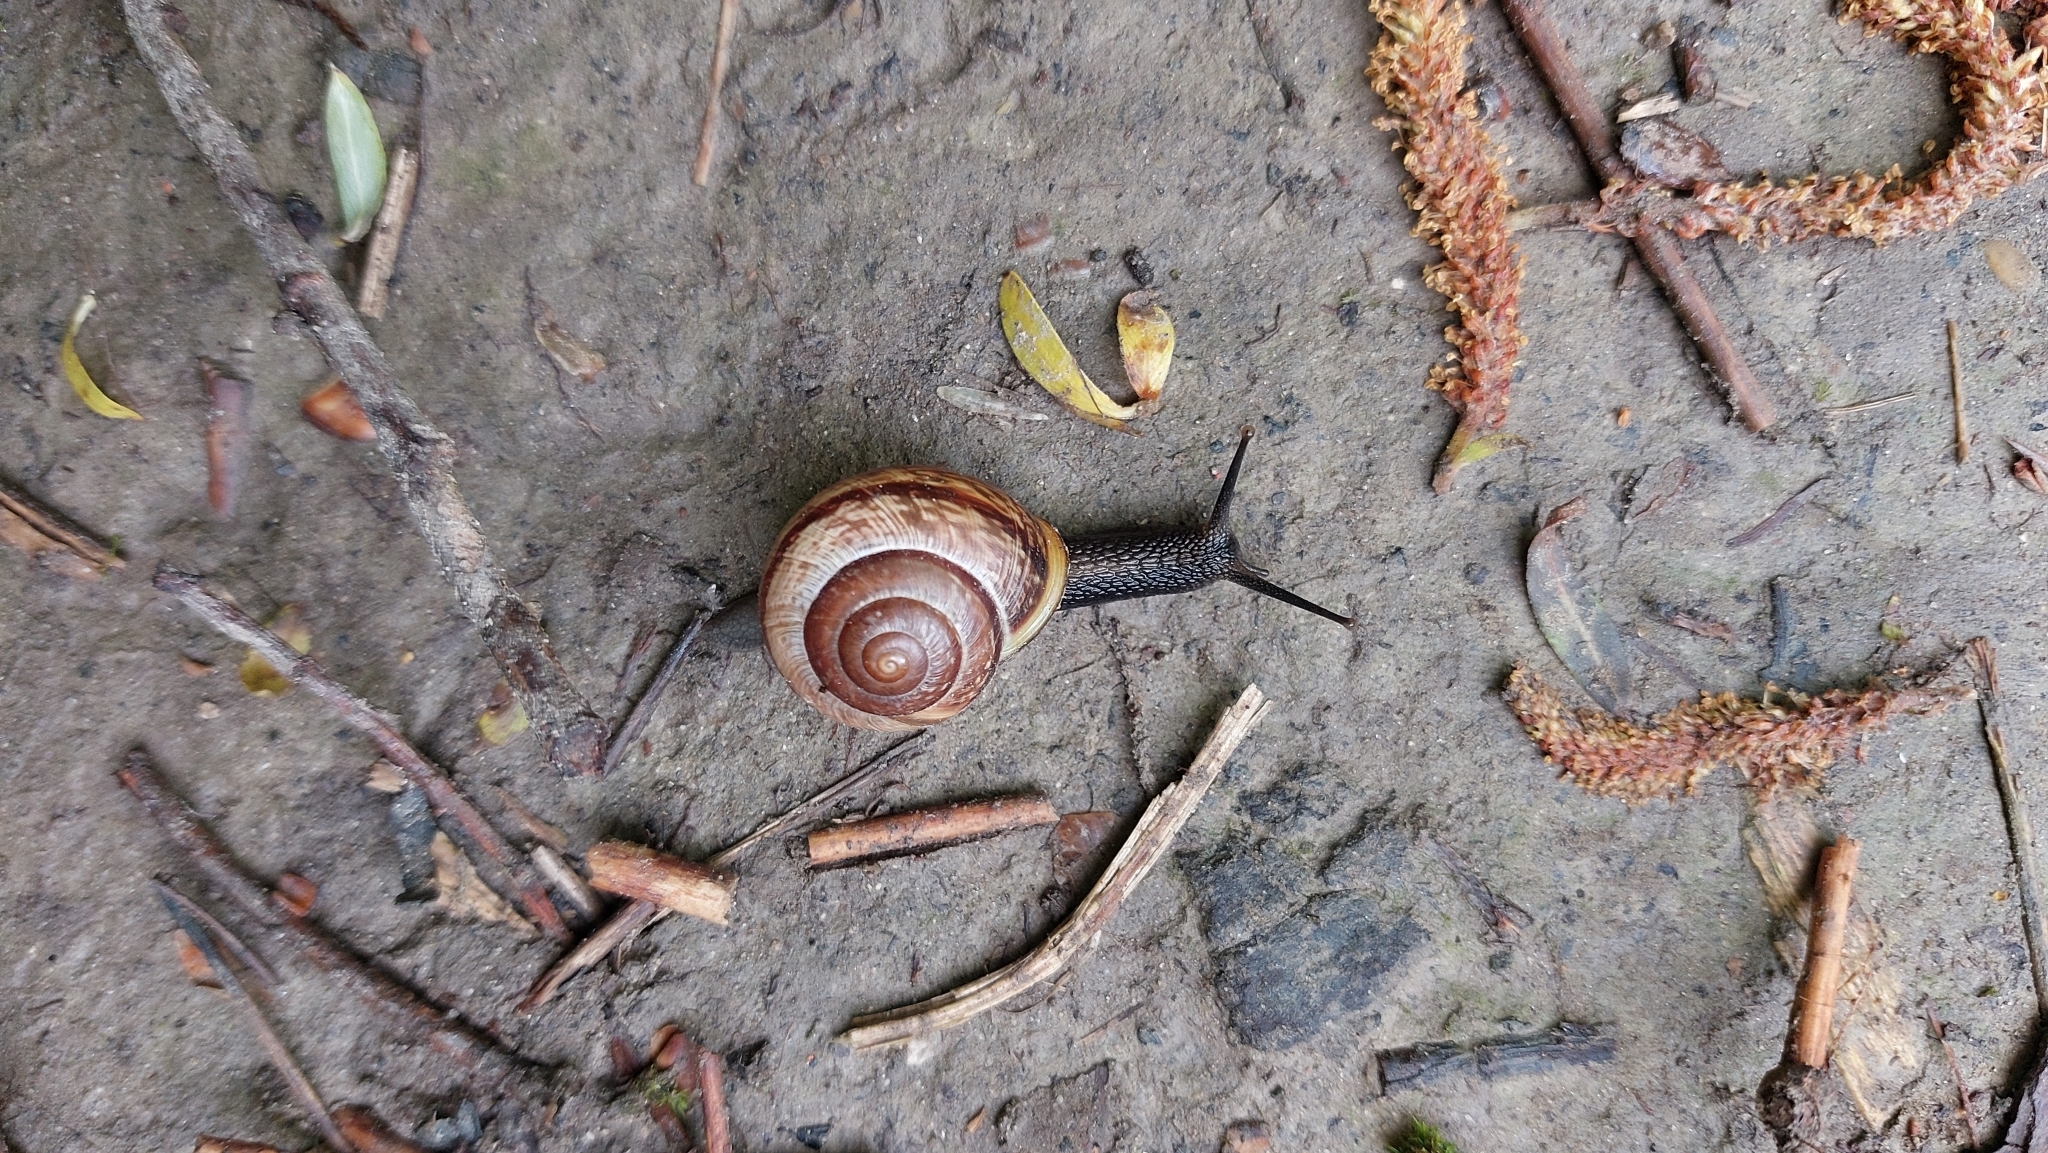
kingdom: Animalia
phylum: Mollusca
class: Gastropoda
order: Stylommatophora
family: Helicidae
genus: Arianta
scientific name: Arianta arbustorum
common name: Copse snail
